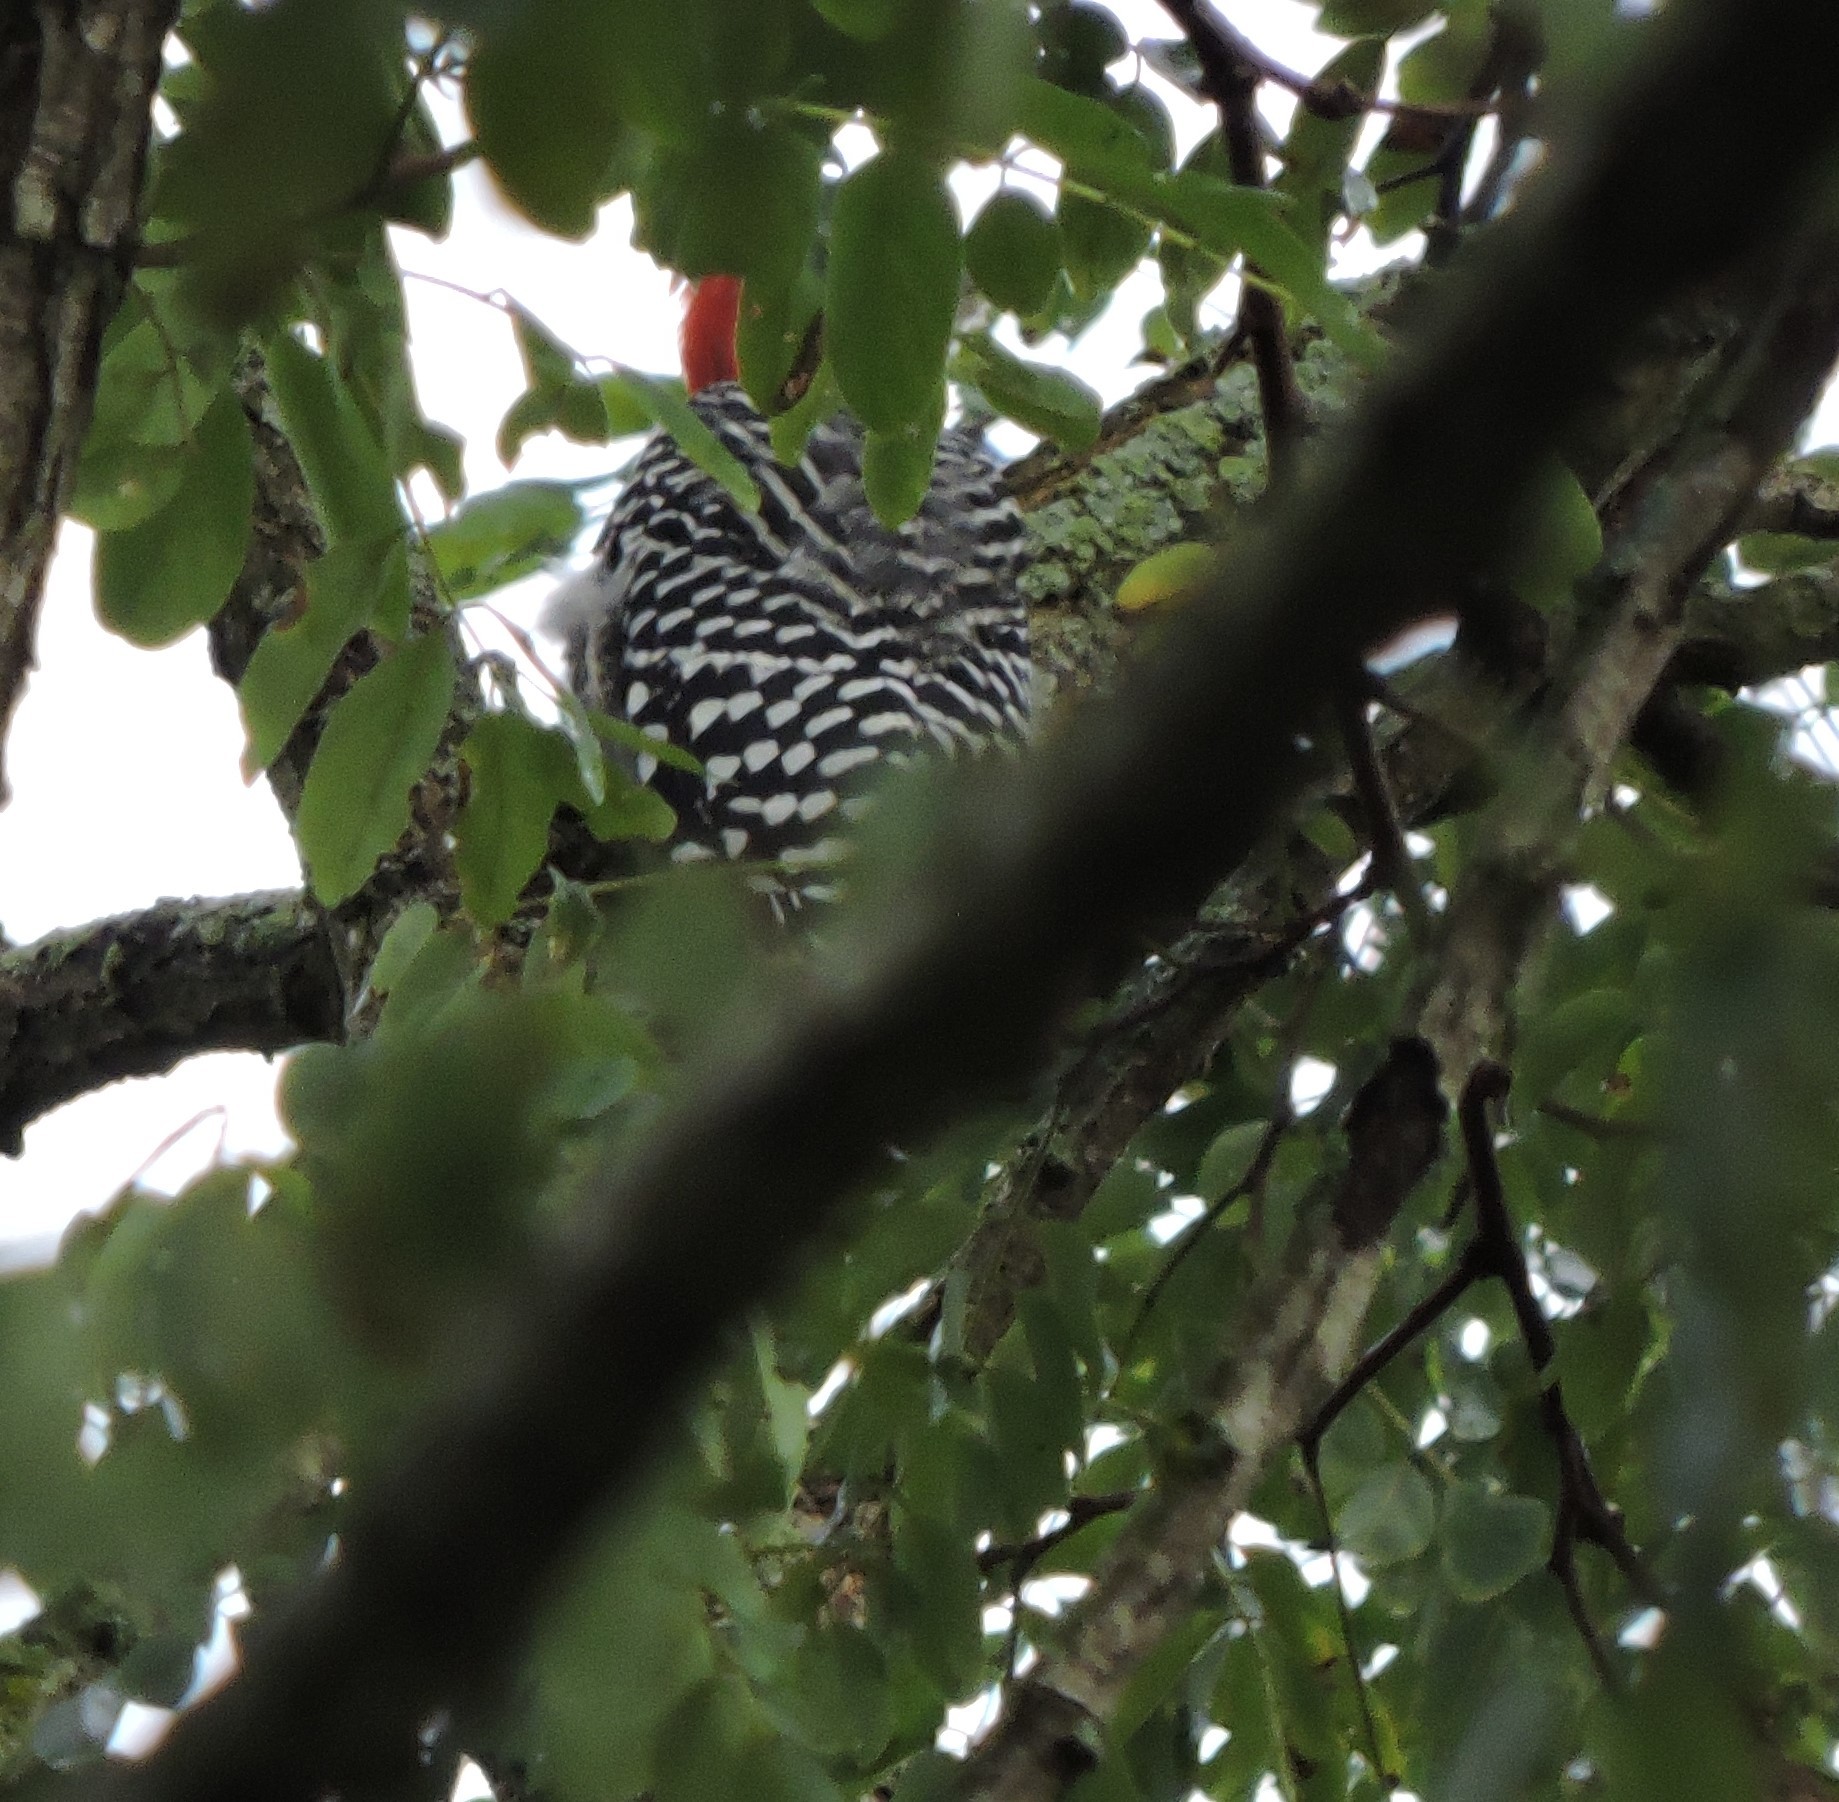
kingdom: Animalia
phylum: Chordata
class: Aves
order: Piciformes
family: Picidae
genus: Melanerpes
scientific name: Melanerpes carolinus
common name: Red-bellied woodpecker
